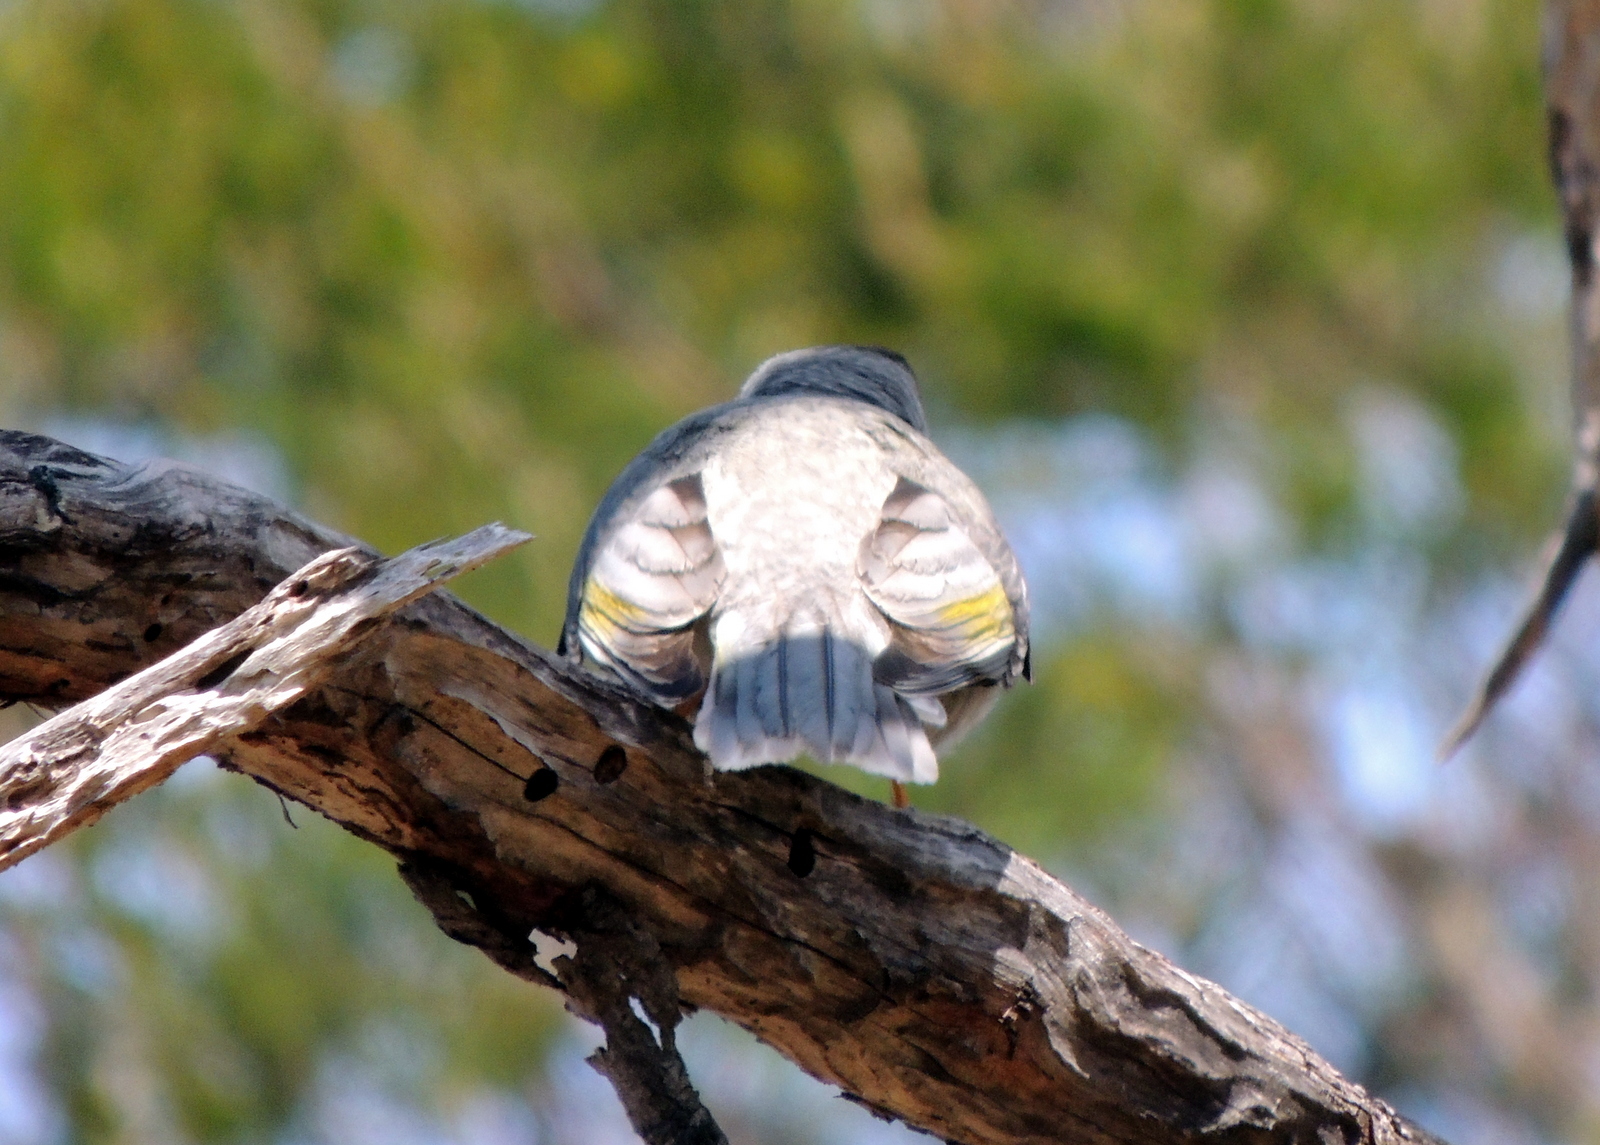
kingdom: Animalia
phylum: Chordata
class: Aves
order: Passeriformes
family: Meliphagidae
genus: Manorina
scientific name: Manorina melanocephala
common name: Noisy miner
